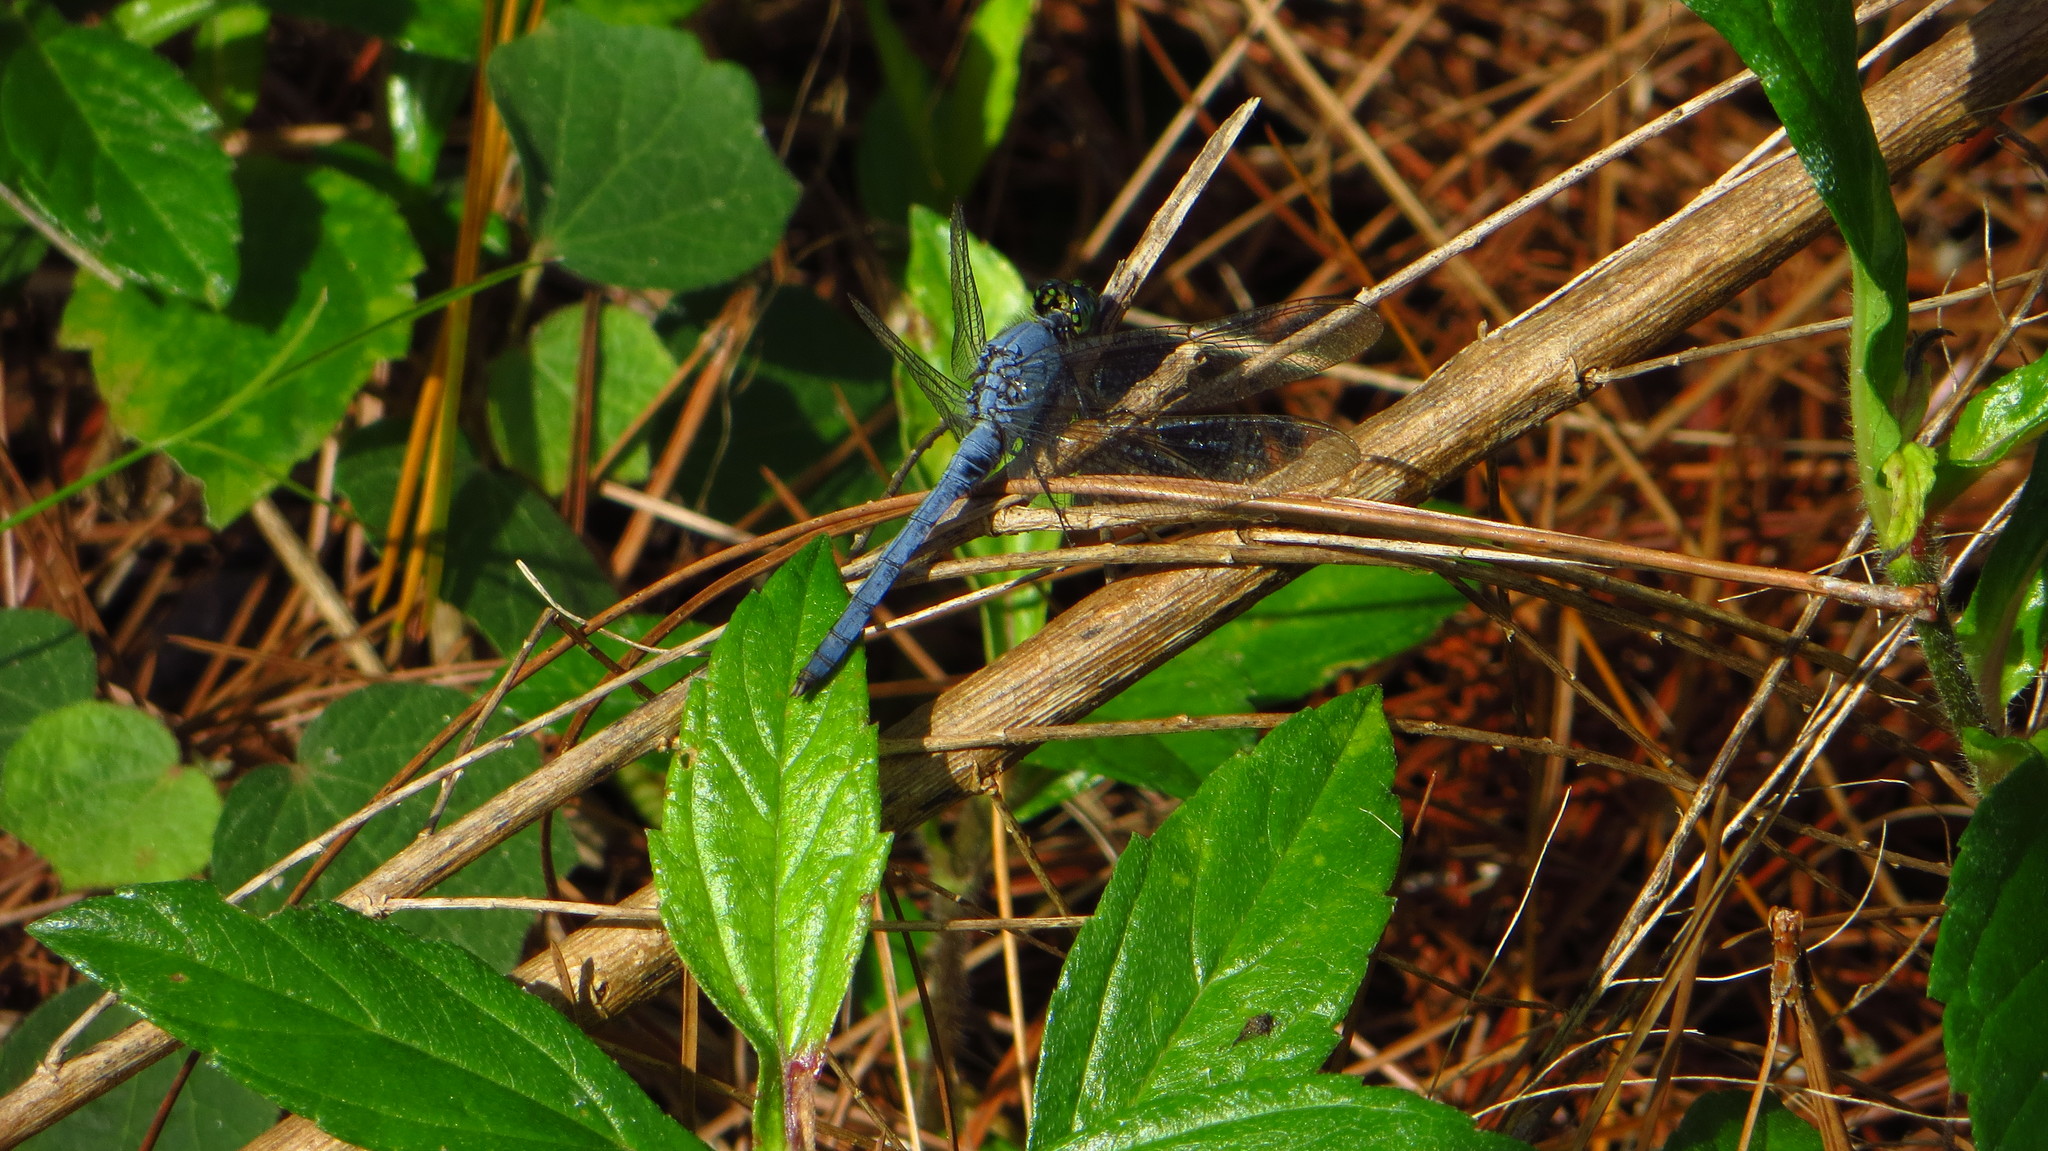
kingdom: Animalia
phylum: Arthropoda
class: Insecta
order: Odonata
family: Libellulidae
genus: Erythemis
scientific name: Erythemis simplicicollis
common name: Eastern pondhawk
